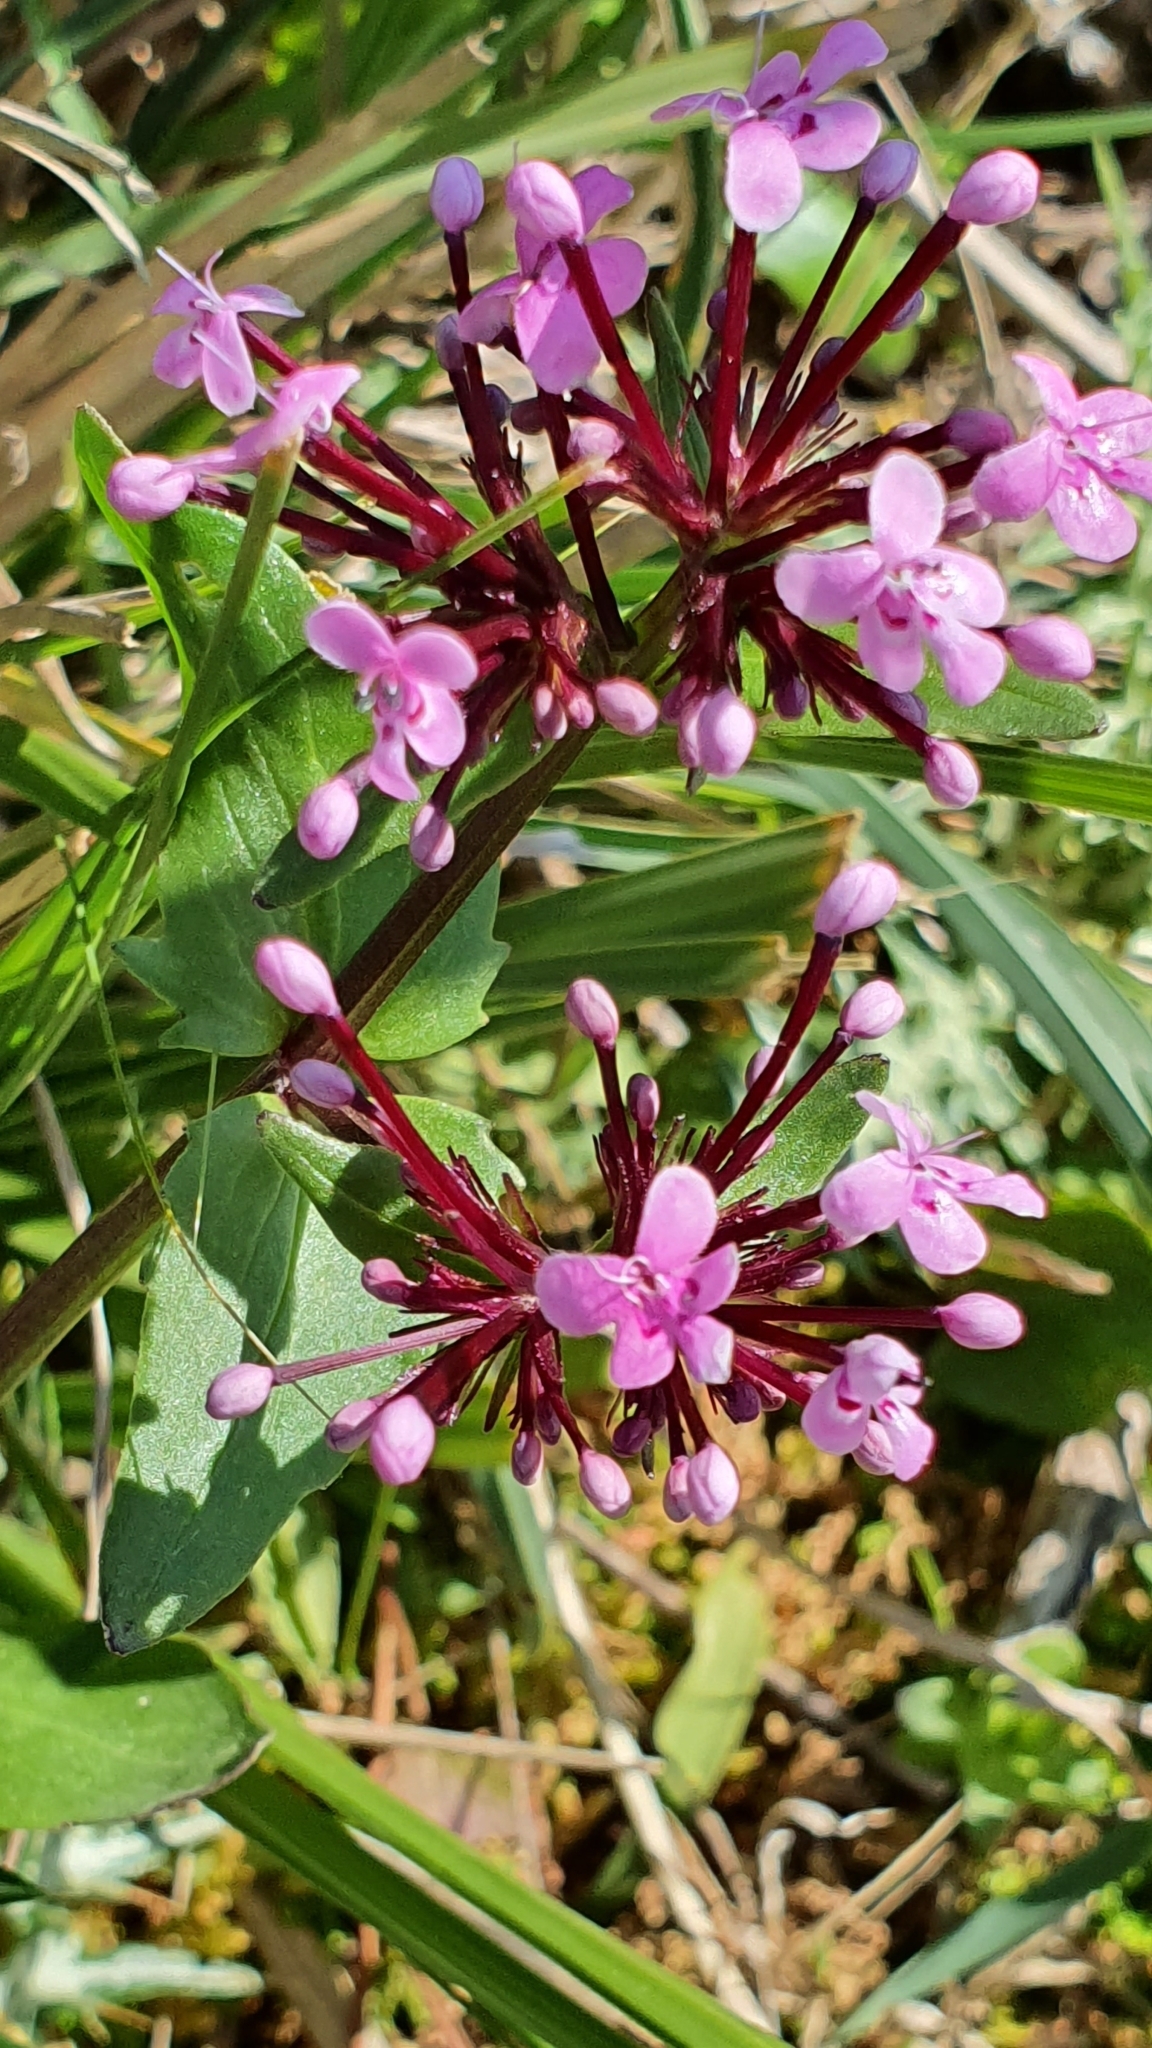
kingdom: Plantae
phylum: Tracheophyta
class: Magnoliopsida
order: Dipsacales
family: Caprifoliaceae
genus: Fedia
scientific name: Fedia graciliflora
